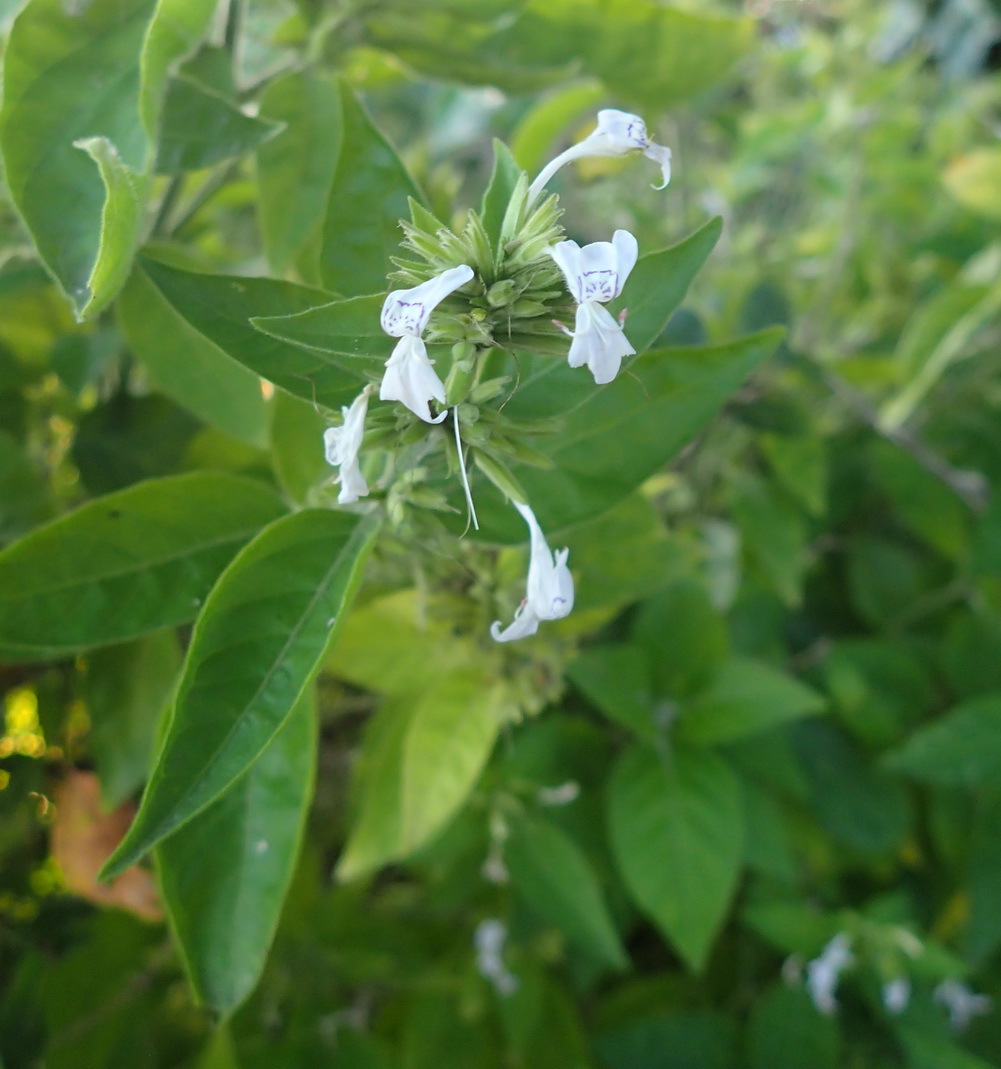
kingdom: Plantae
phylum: Tracheophyta
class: Magnoliopsida
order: Lamiales
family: Acanthaceae
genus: Hypoestes
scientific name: Hypoestes forskaolii
